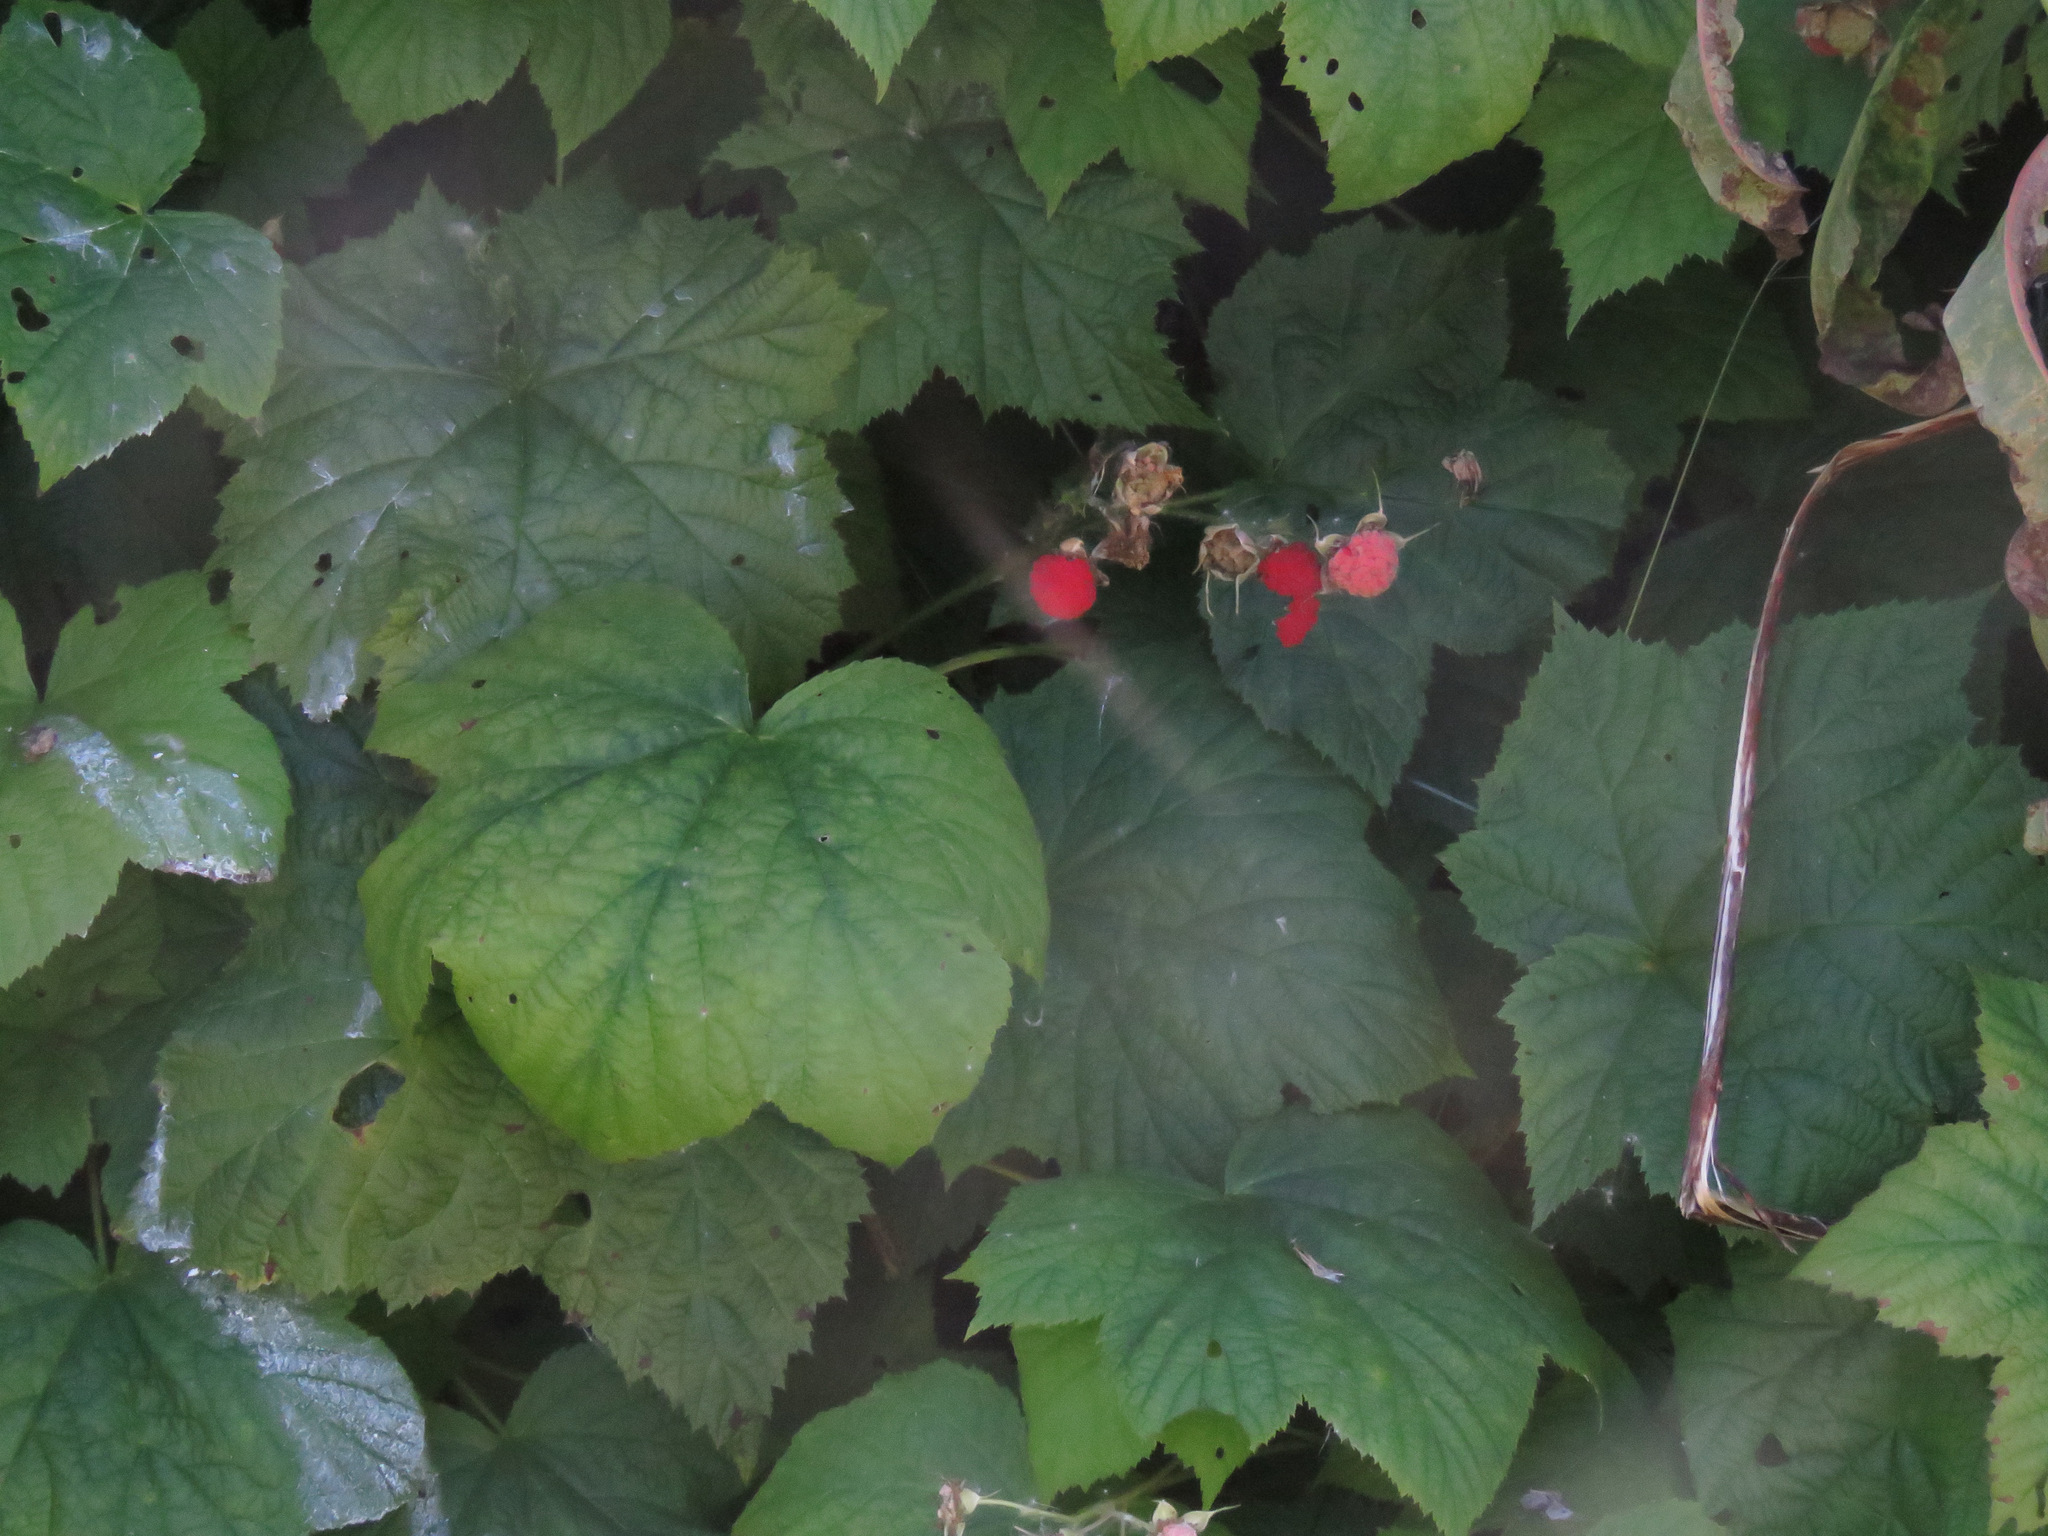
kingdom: Plantae
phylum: Tracheophyta
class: Magnoliopsida
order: Rosales
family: Rosaceae
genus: Rubus
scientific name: Rubus parviflorus
